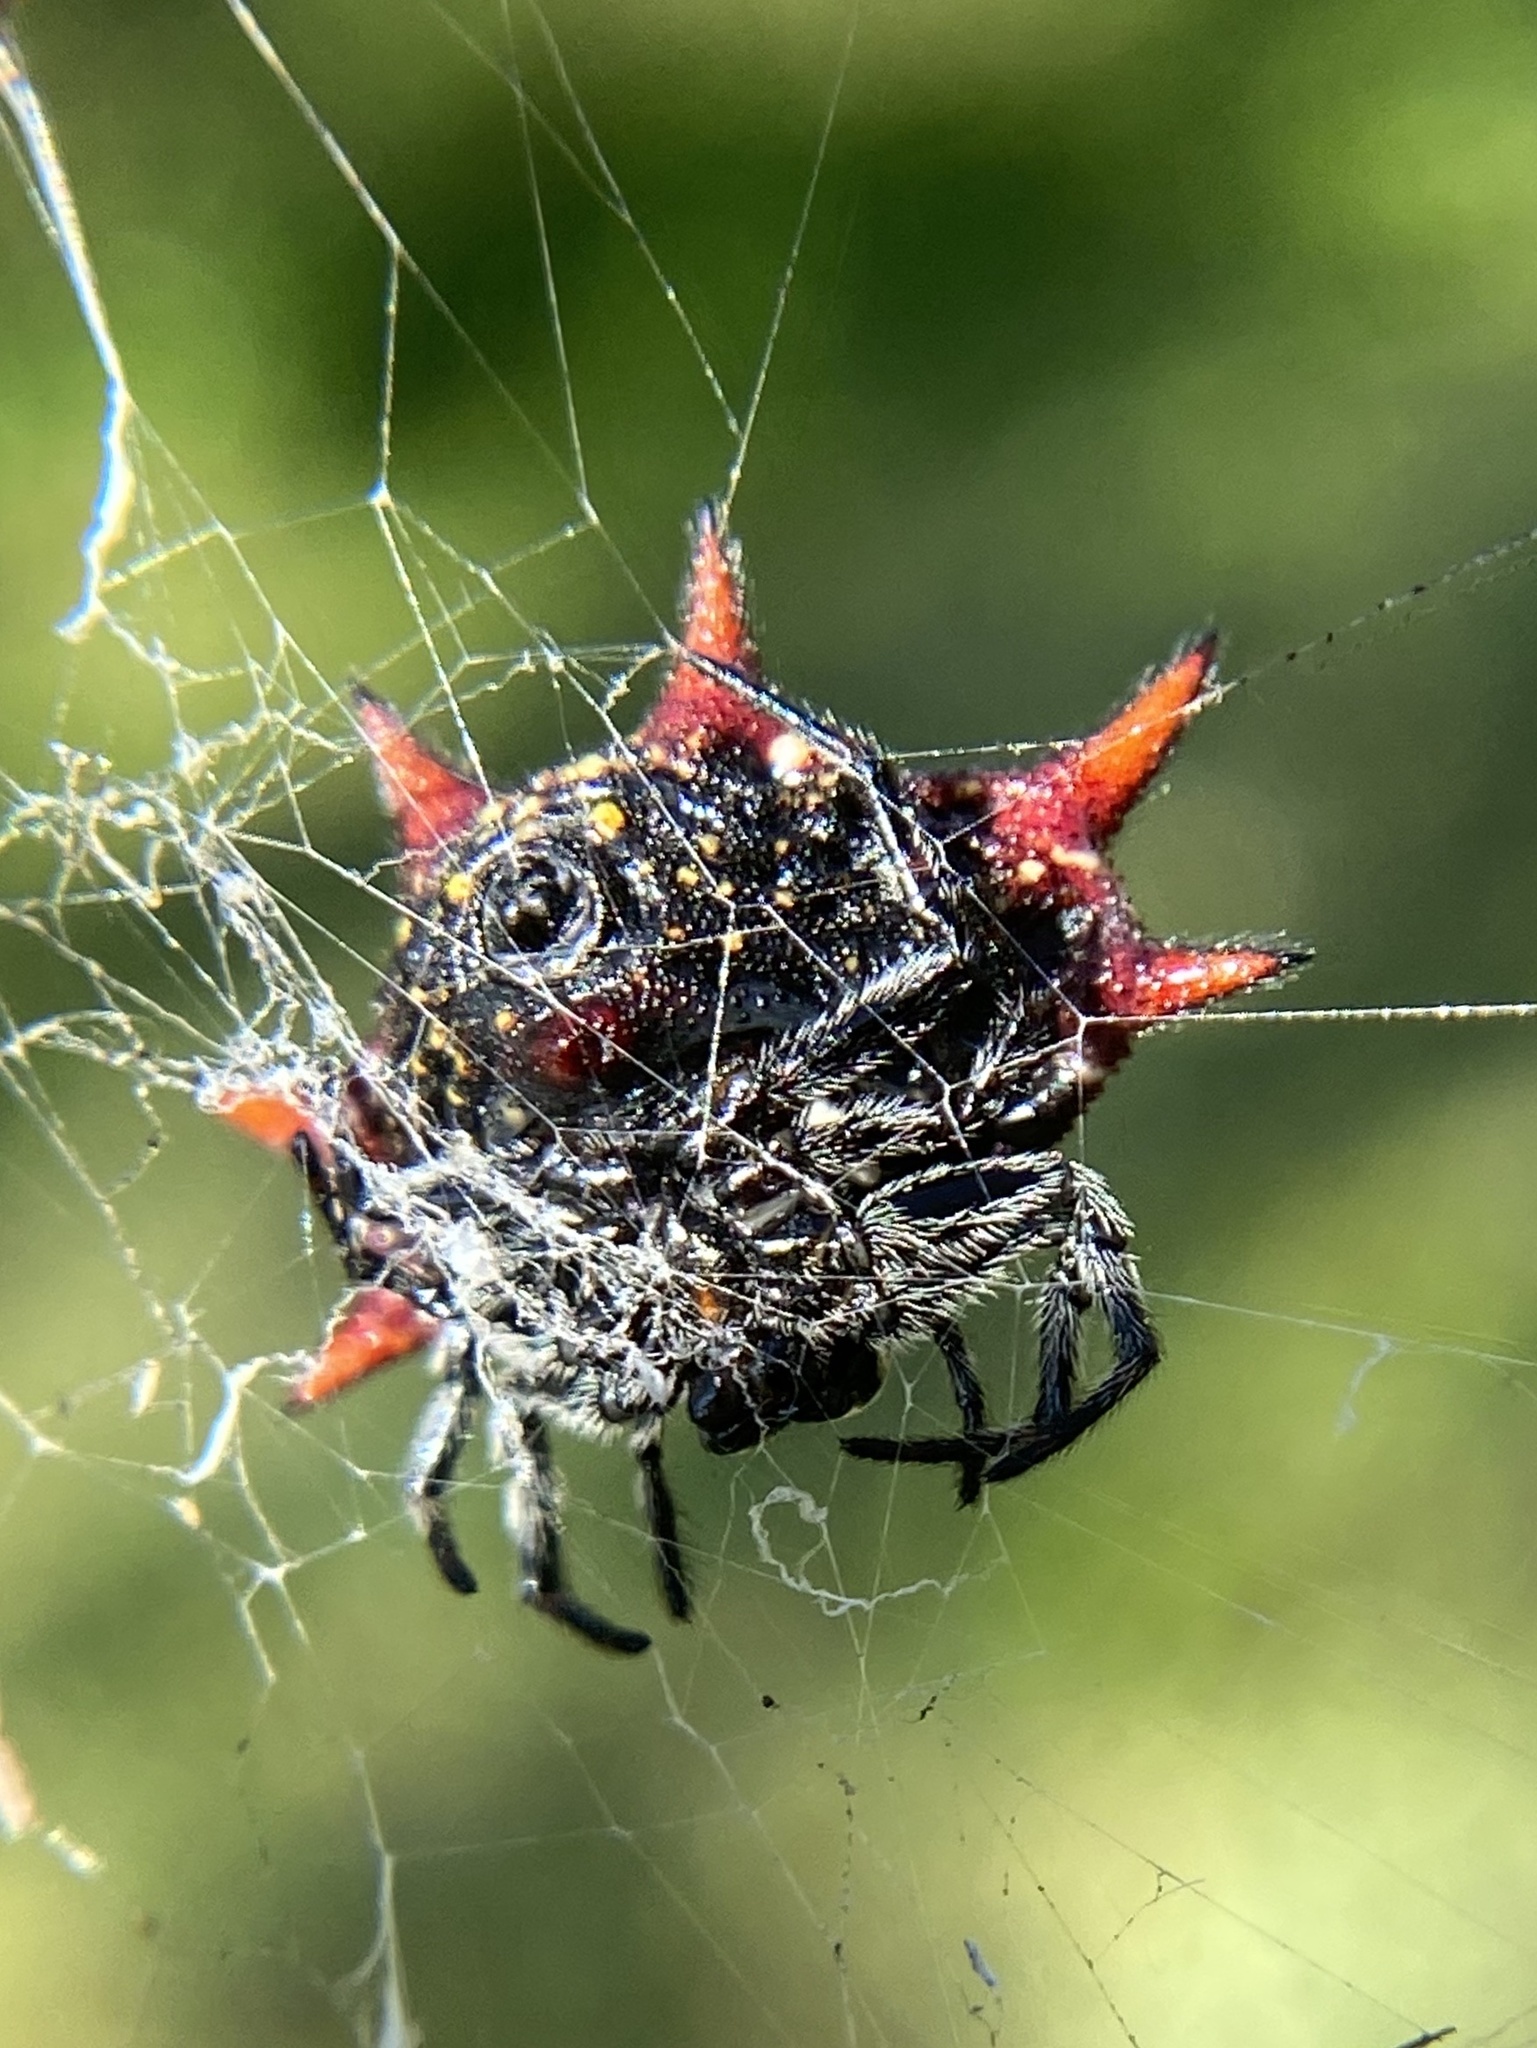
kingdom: Animalia
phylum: Arthropoda
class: Arachnida
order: Araneae
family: Araneidae
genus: Gasteracantha
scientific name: Gasteracantha cancriformis
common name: Orb weavers
